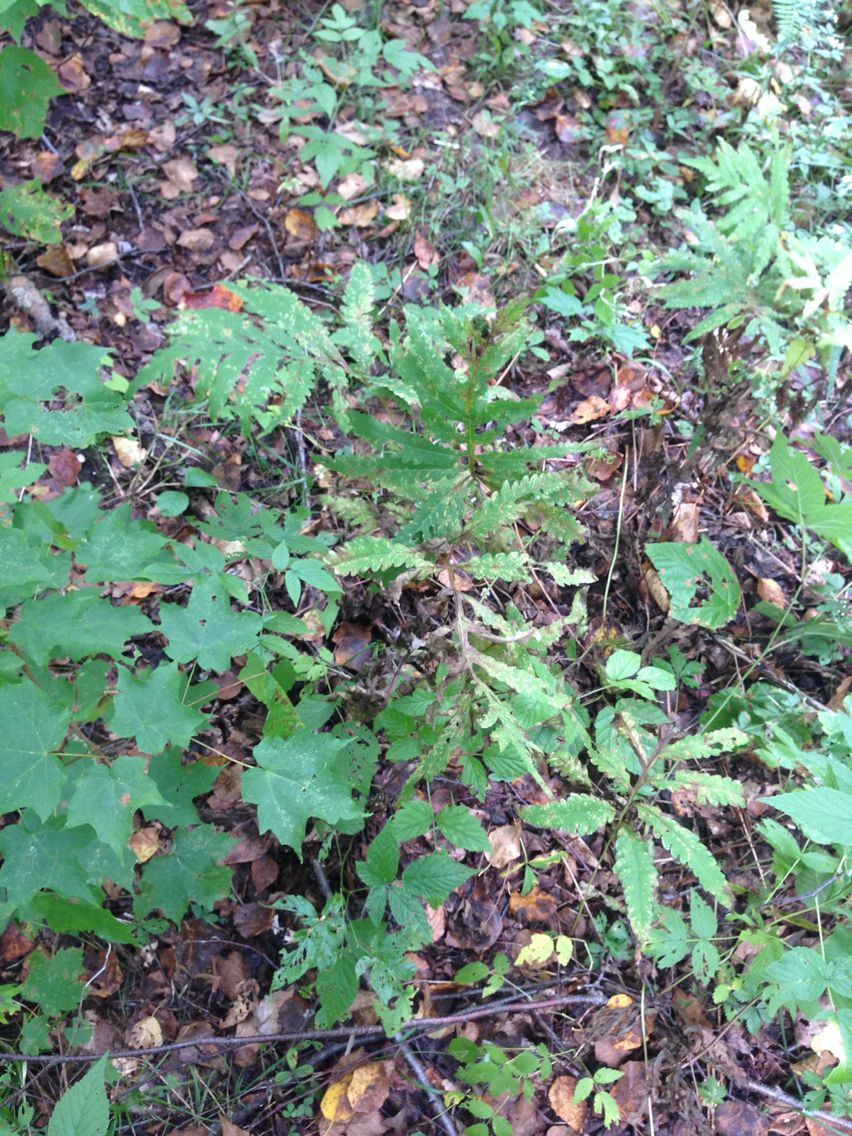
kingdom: Plantae
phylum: Tracheophyta
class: Polypodiopsida
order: Polypodiales
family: Onocleaceae
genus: Onoclea
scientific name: Onoclea sensibilis
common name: Sensitive fern
